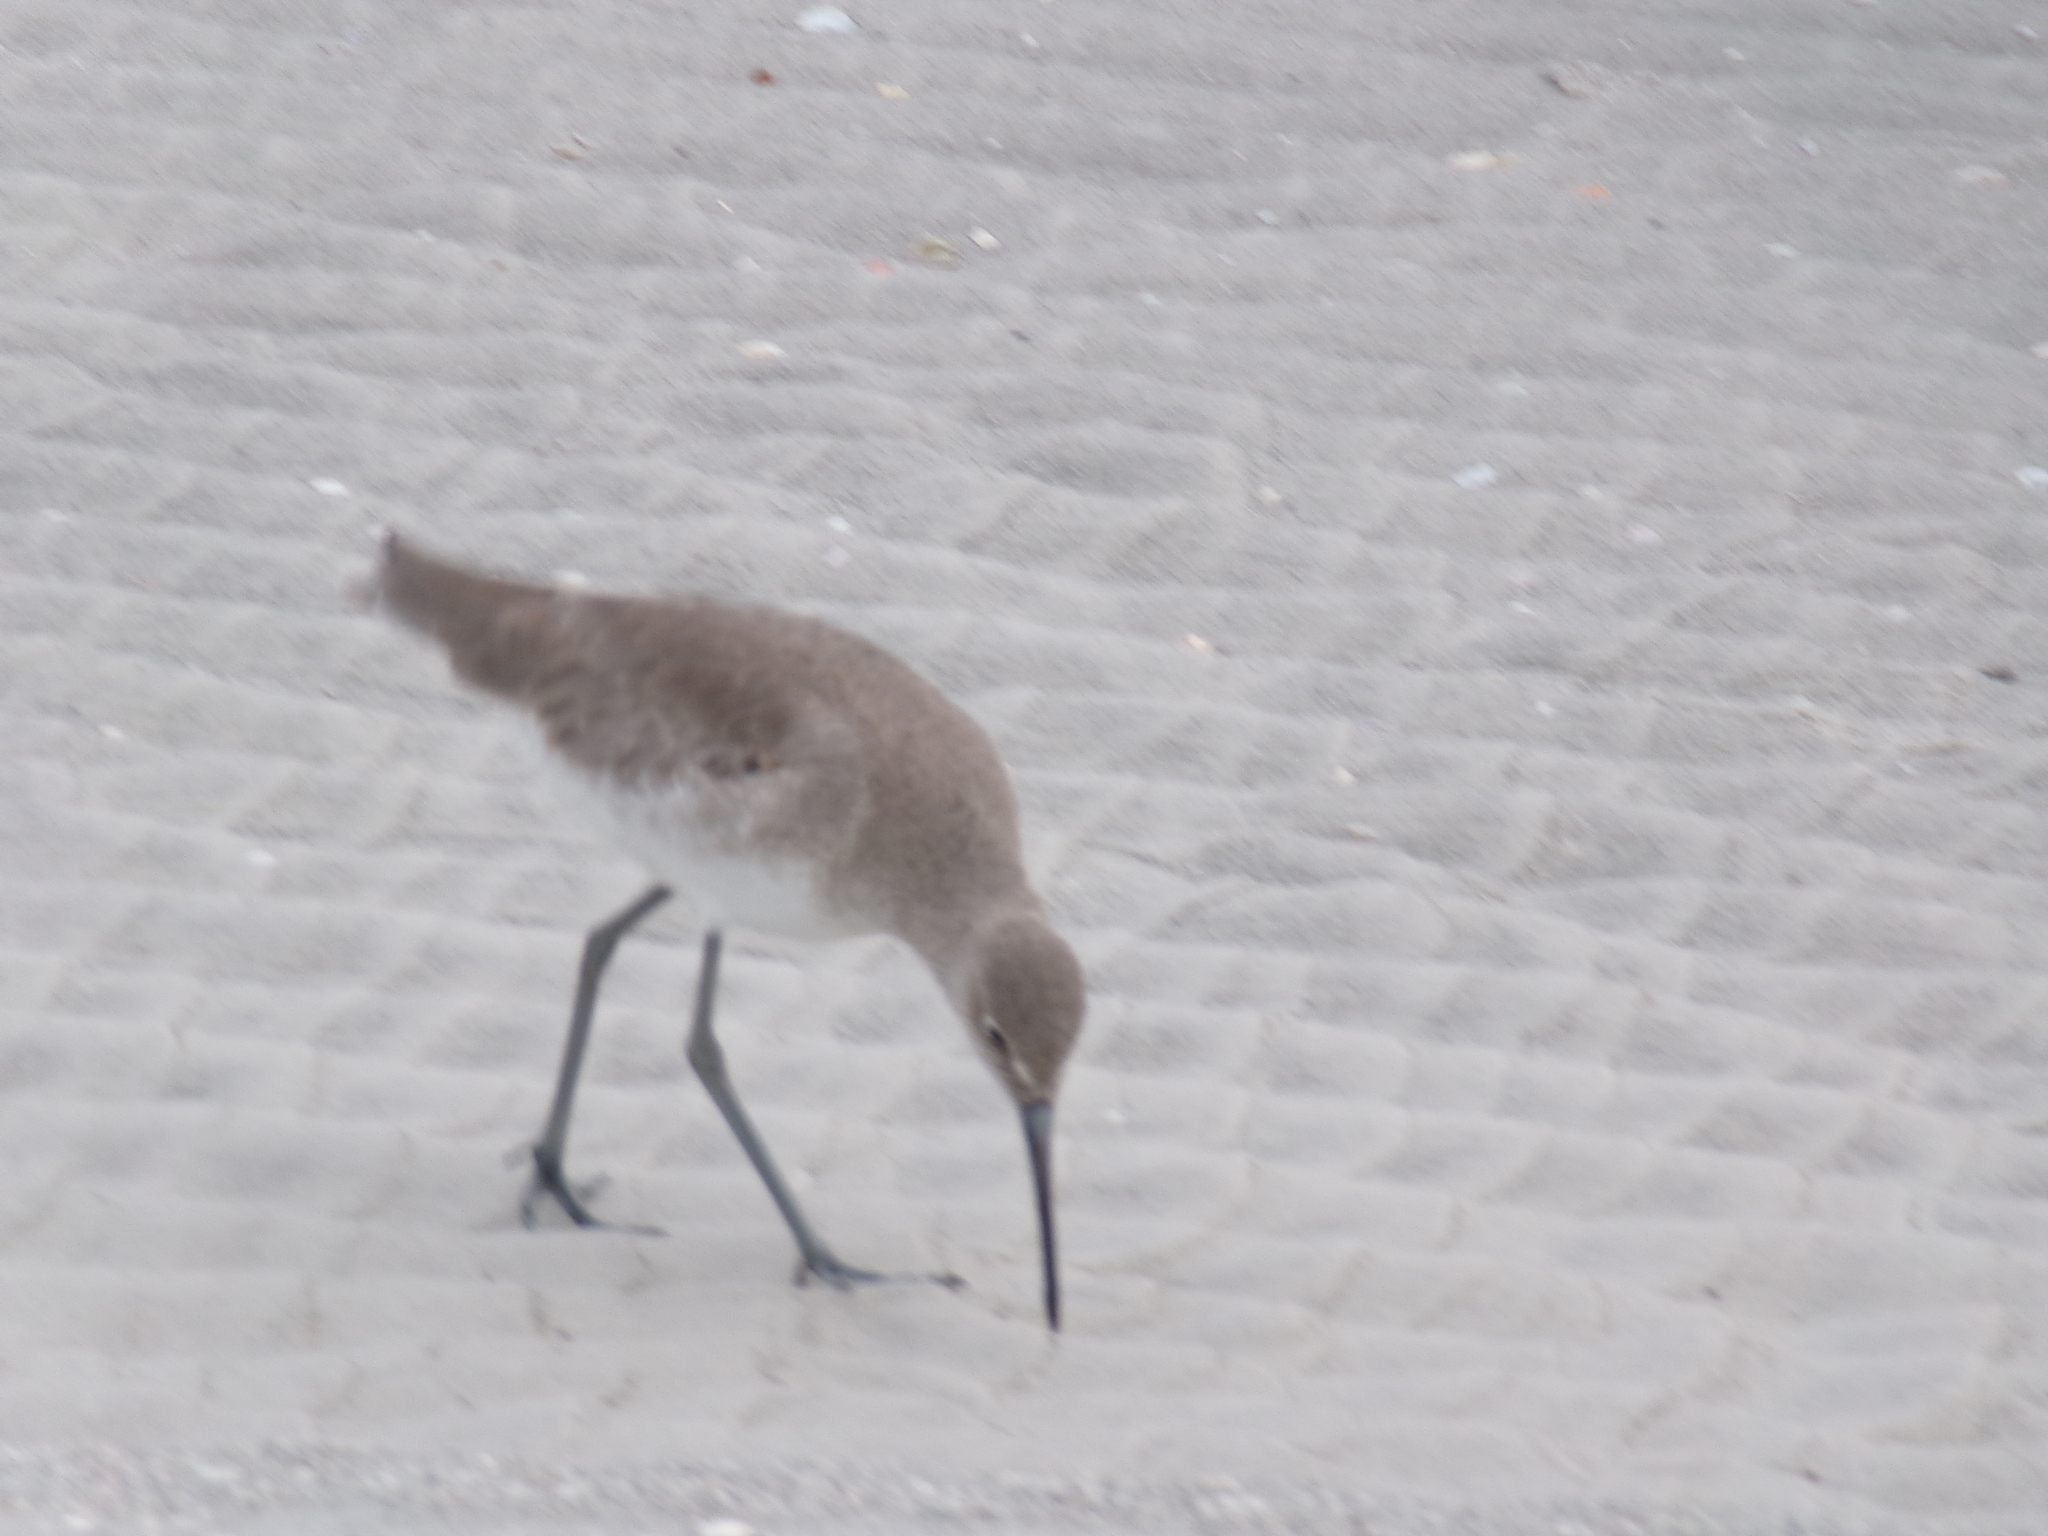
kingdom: Animalia
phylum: Chordata
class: Aves
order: Charadriiformes
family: Scolopacidae
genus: Tringa
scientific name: Tringa semipalmata
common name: Willet
